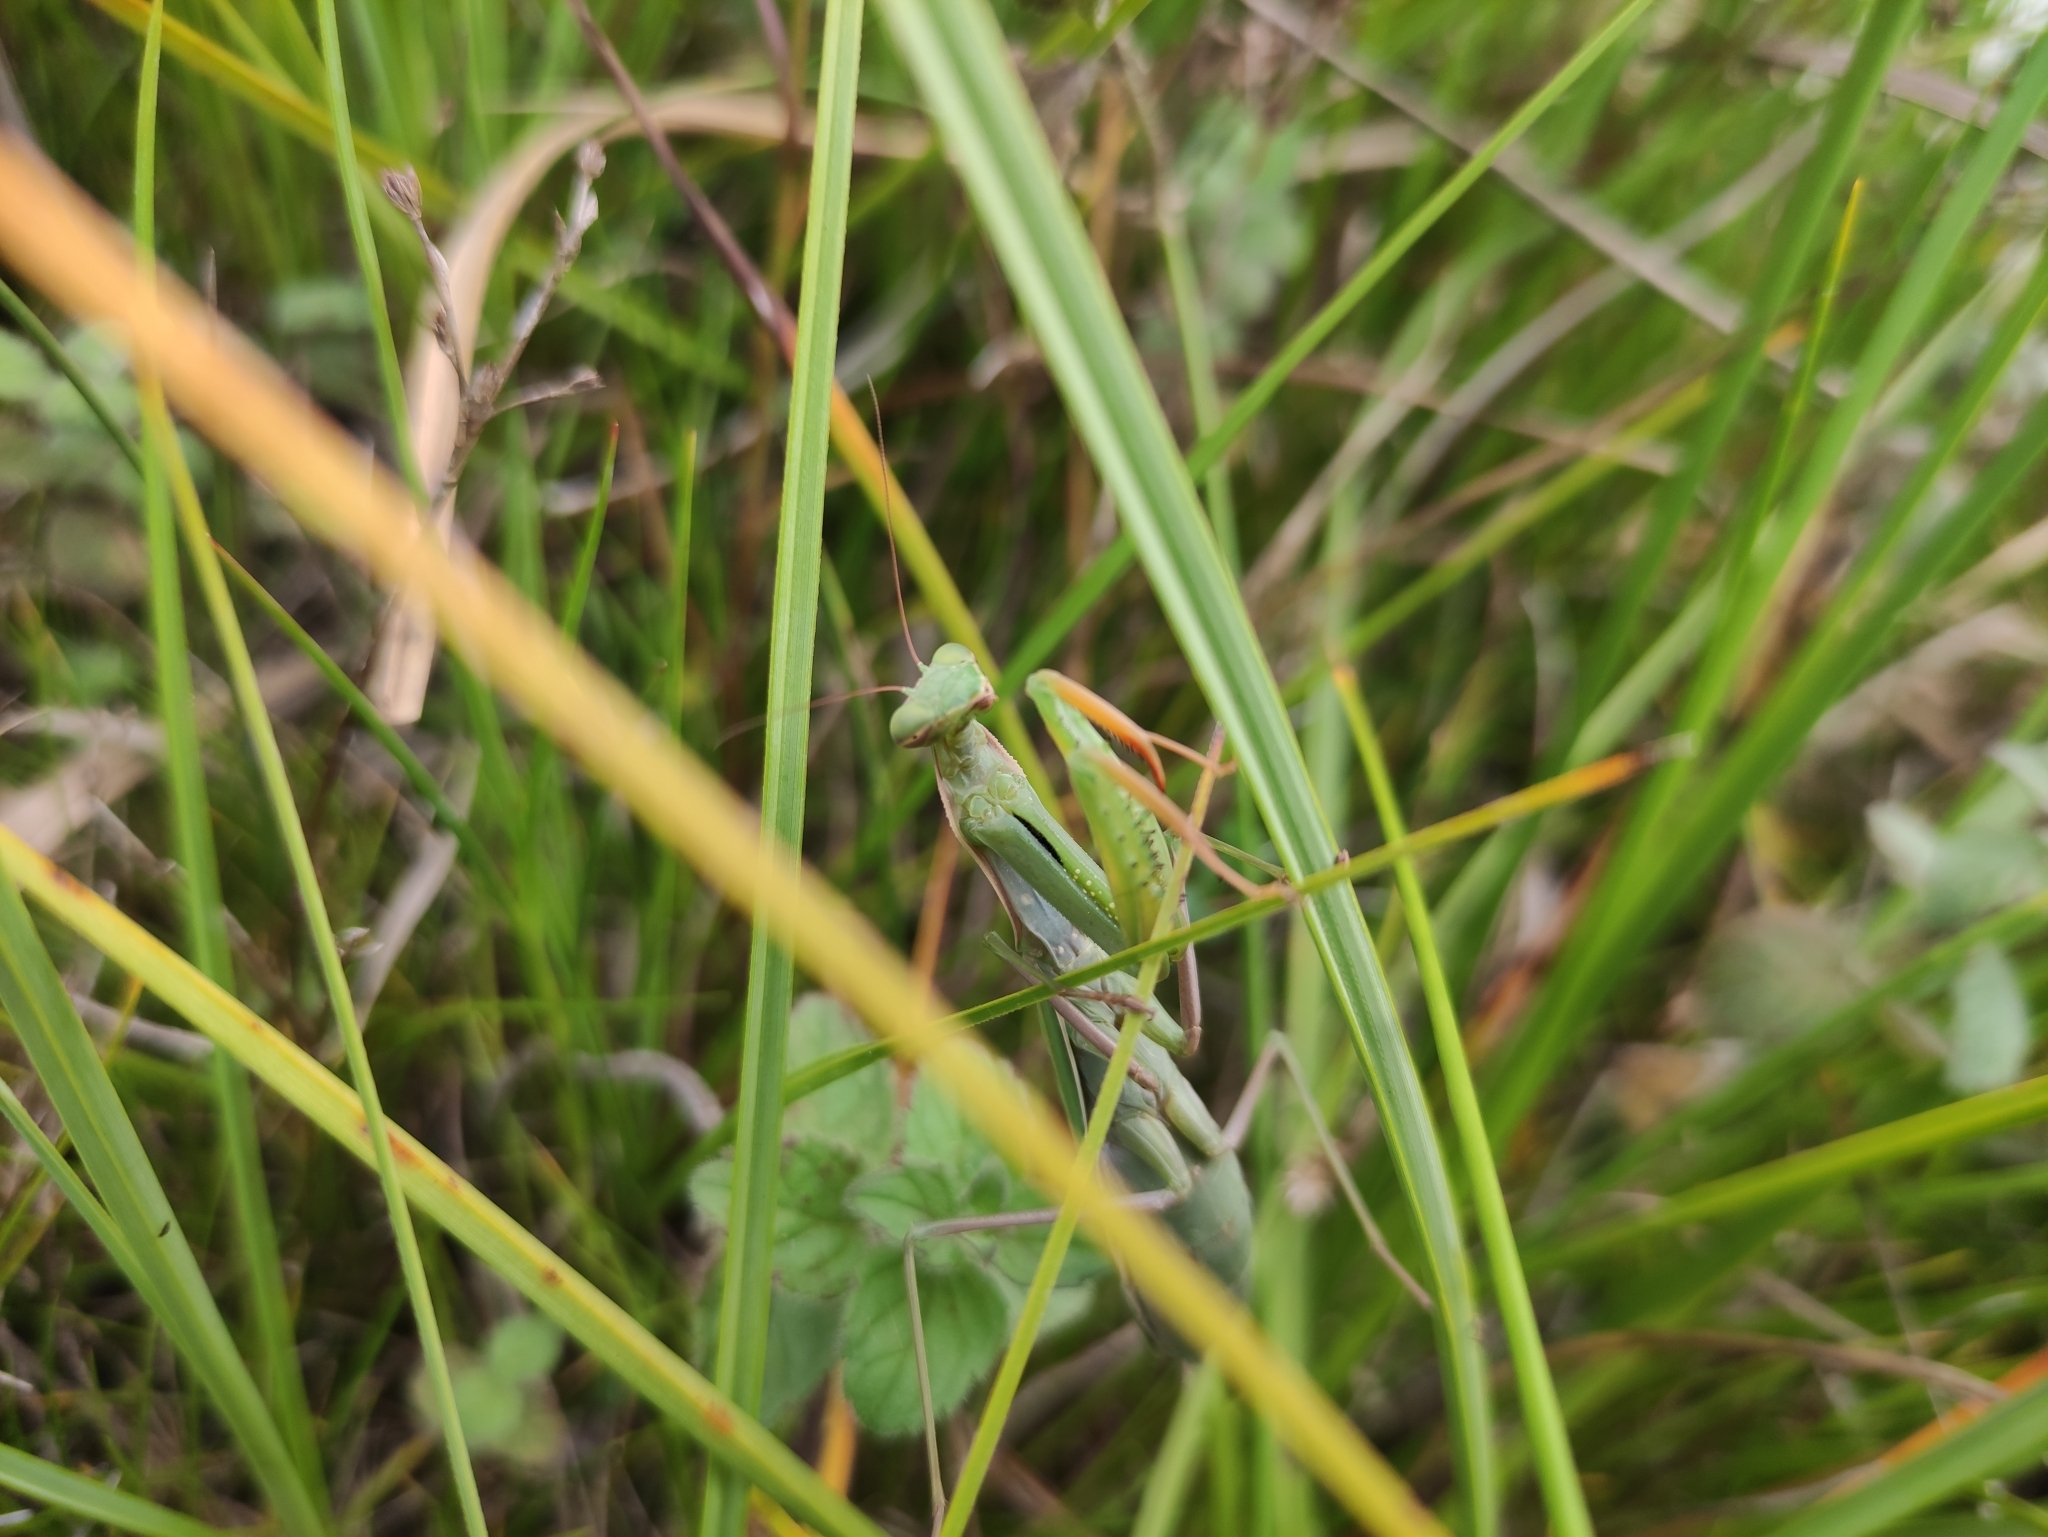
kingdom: Animalia
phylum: Arthropoda
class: Insecta
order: Mantodea
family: Mantidae
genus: Mantis
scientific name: Mantis religiosa
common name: Praying mantis
